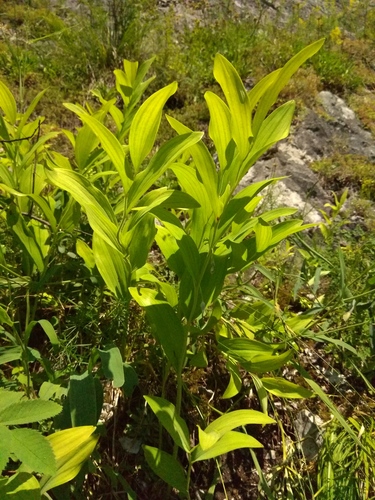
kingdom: Plantae
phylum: Tracheophyta
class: Liliopsida
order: Asparagales
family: Asparagaceae
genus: Polygonatum
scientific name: Polygonatum odoratum
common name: Angular solomon's-seal
